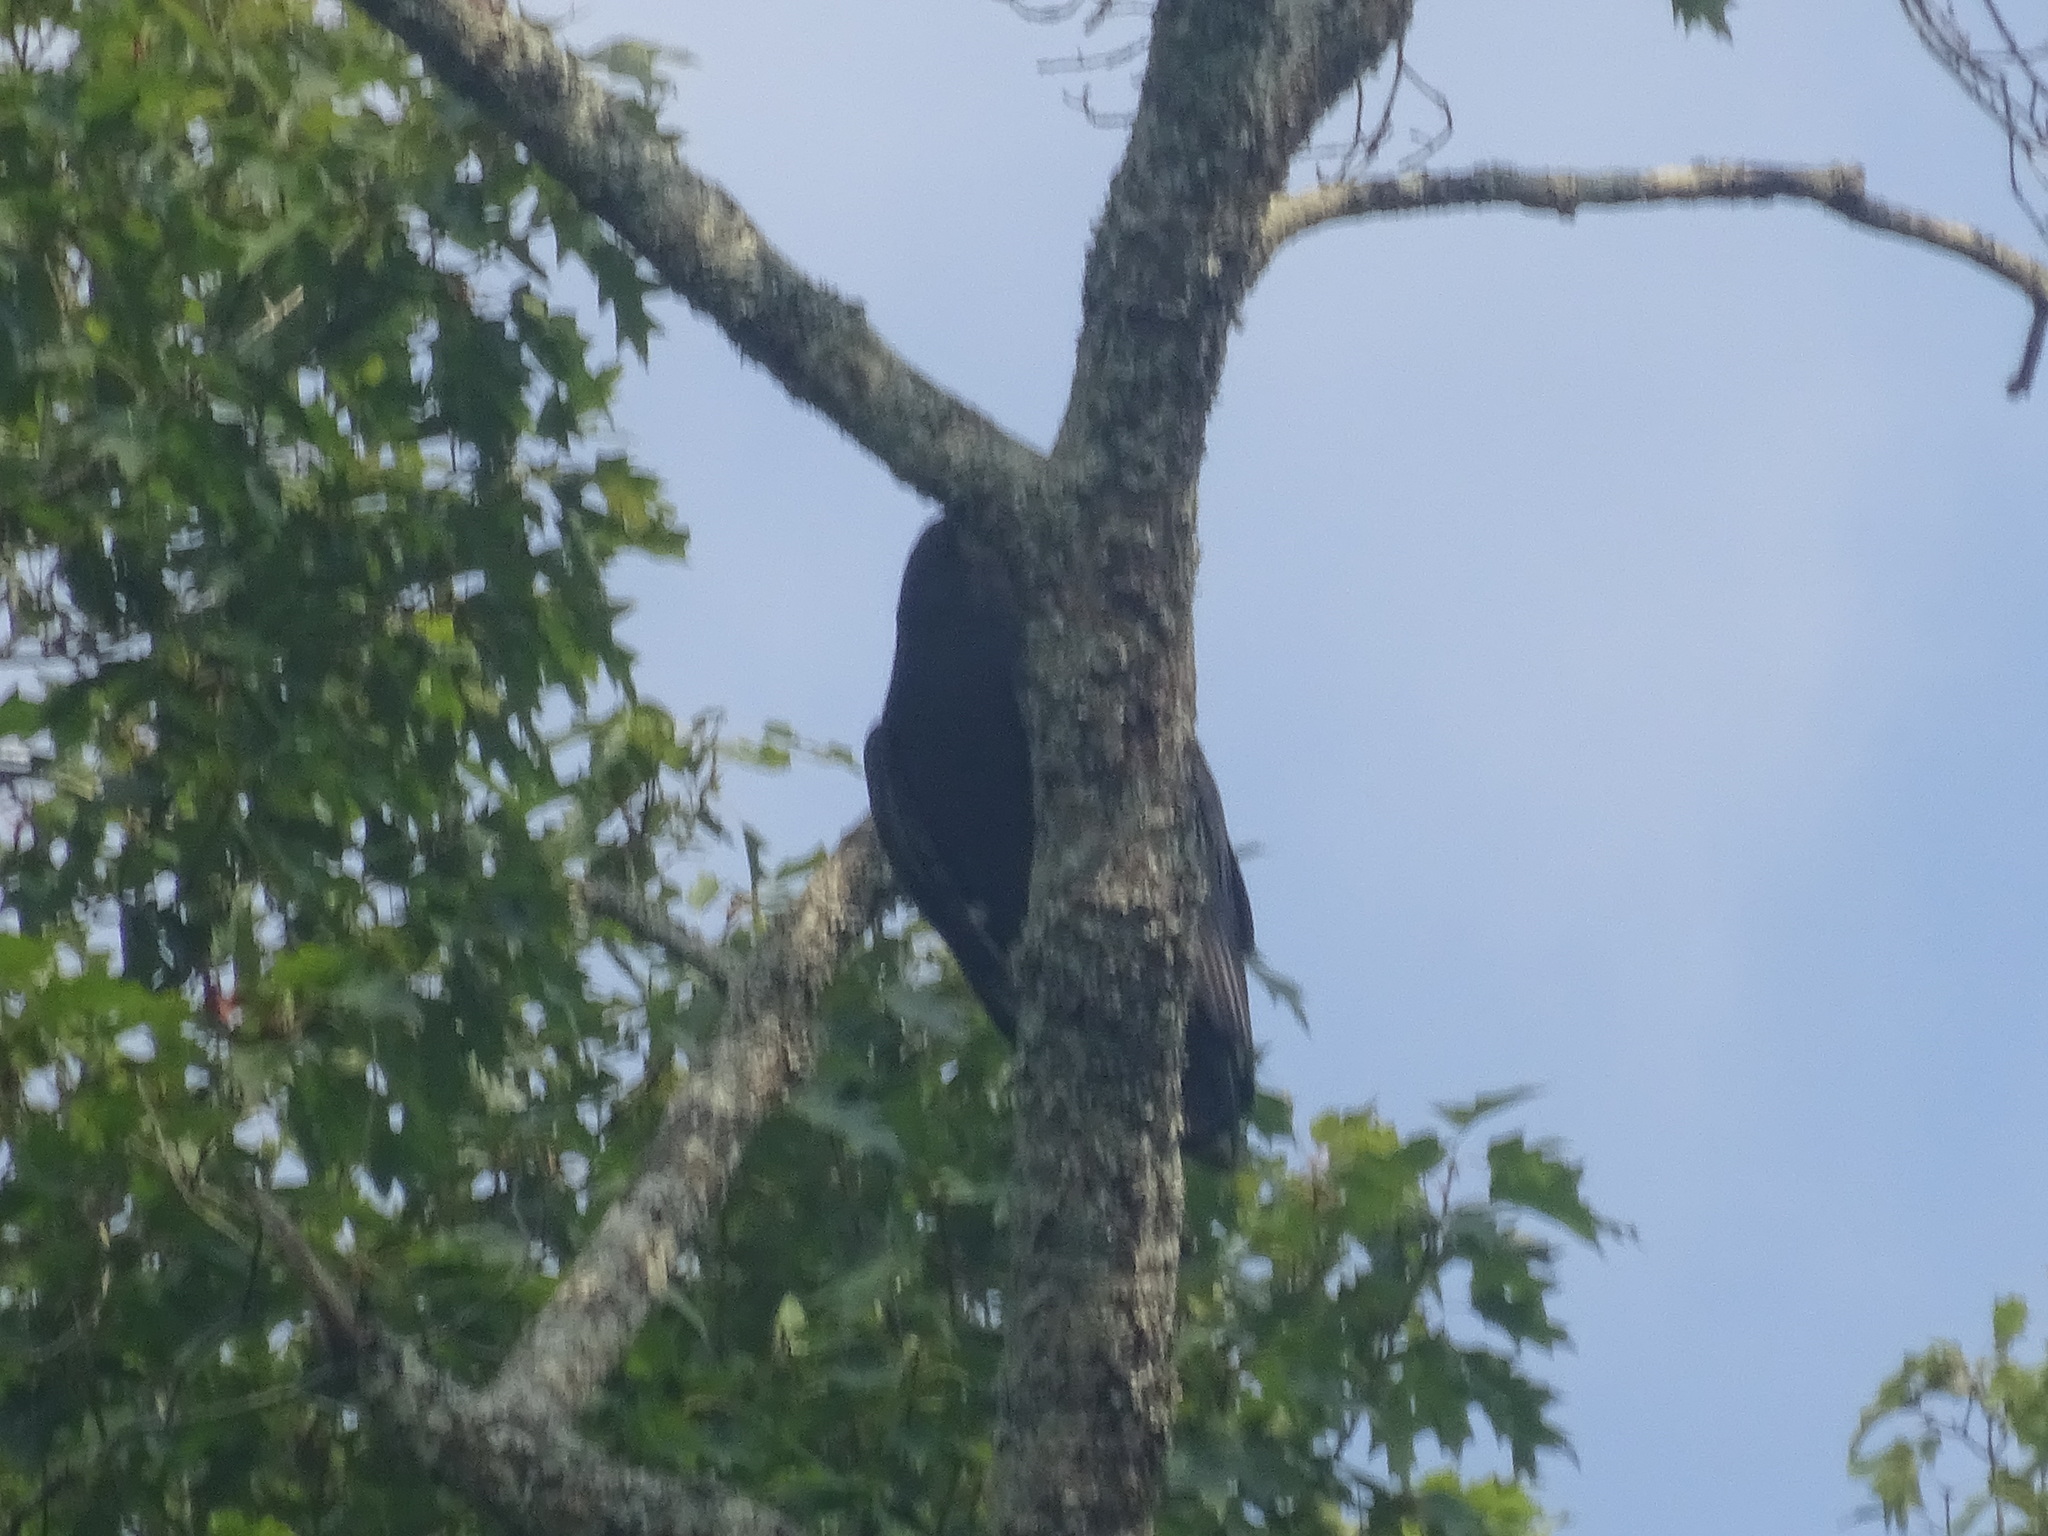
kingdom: Animalia
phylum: Chordata
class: Aves
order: Accipitriformes
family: Cathartidae
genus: Coragyps
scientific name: Coragyps atratus
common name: Black vulture
